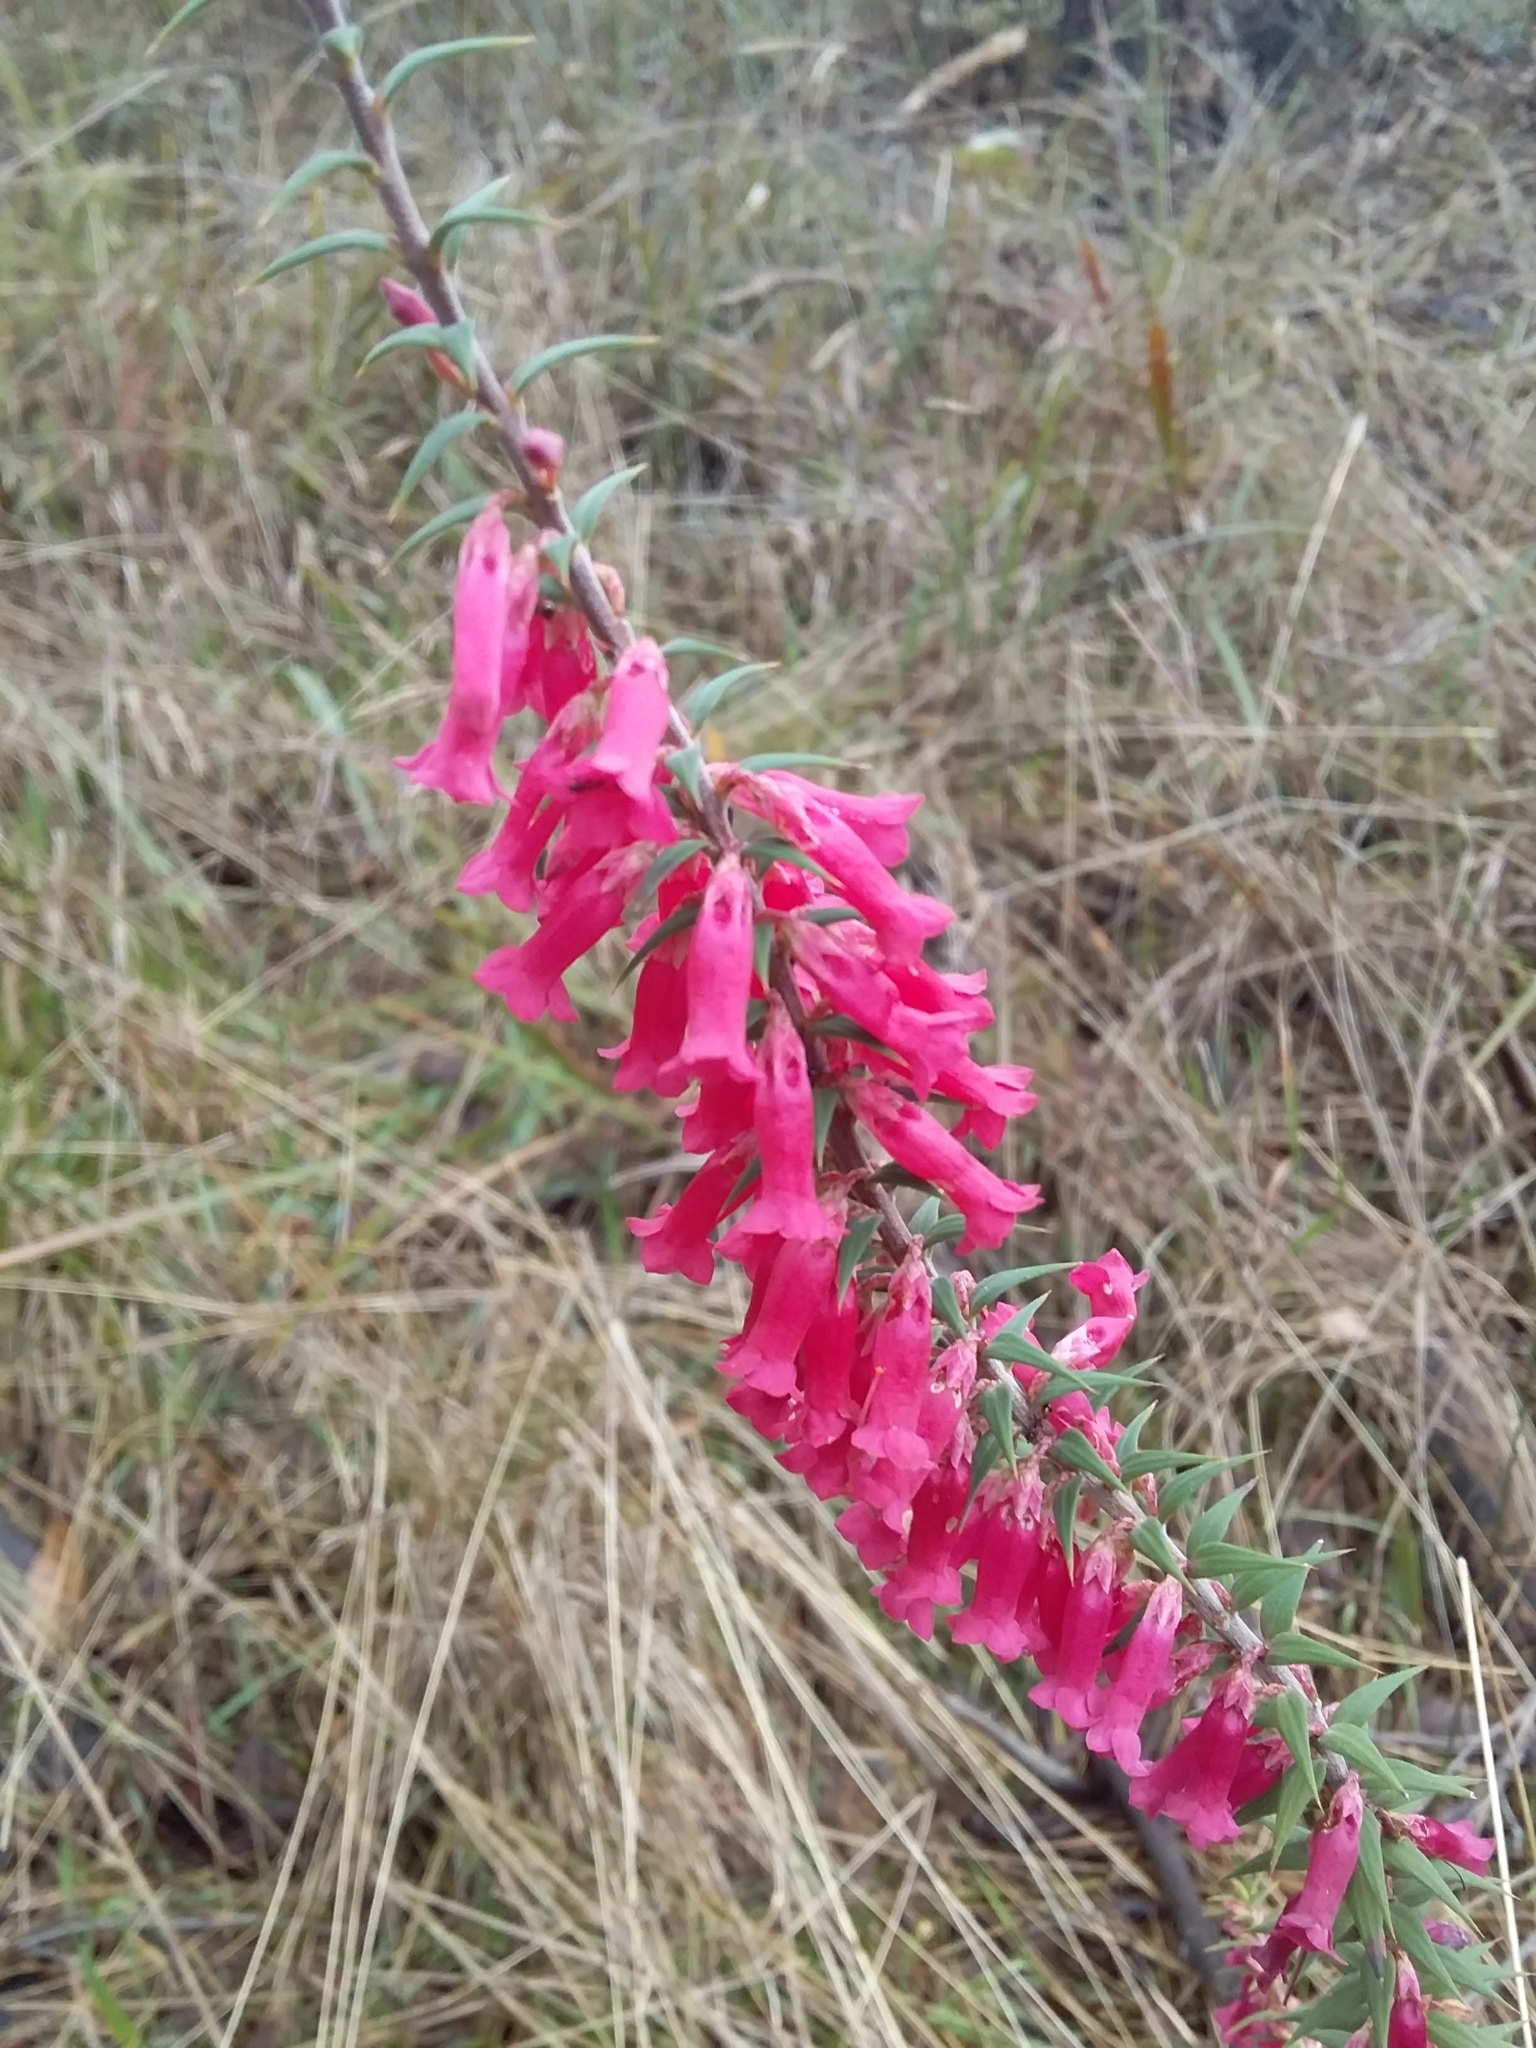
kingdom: Plantae
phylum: Tracheophyta
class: Magnoliopsida
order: Ericales
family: Ericaceae
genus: Epacris
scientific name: Epacris impressa
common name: Common-heath
